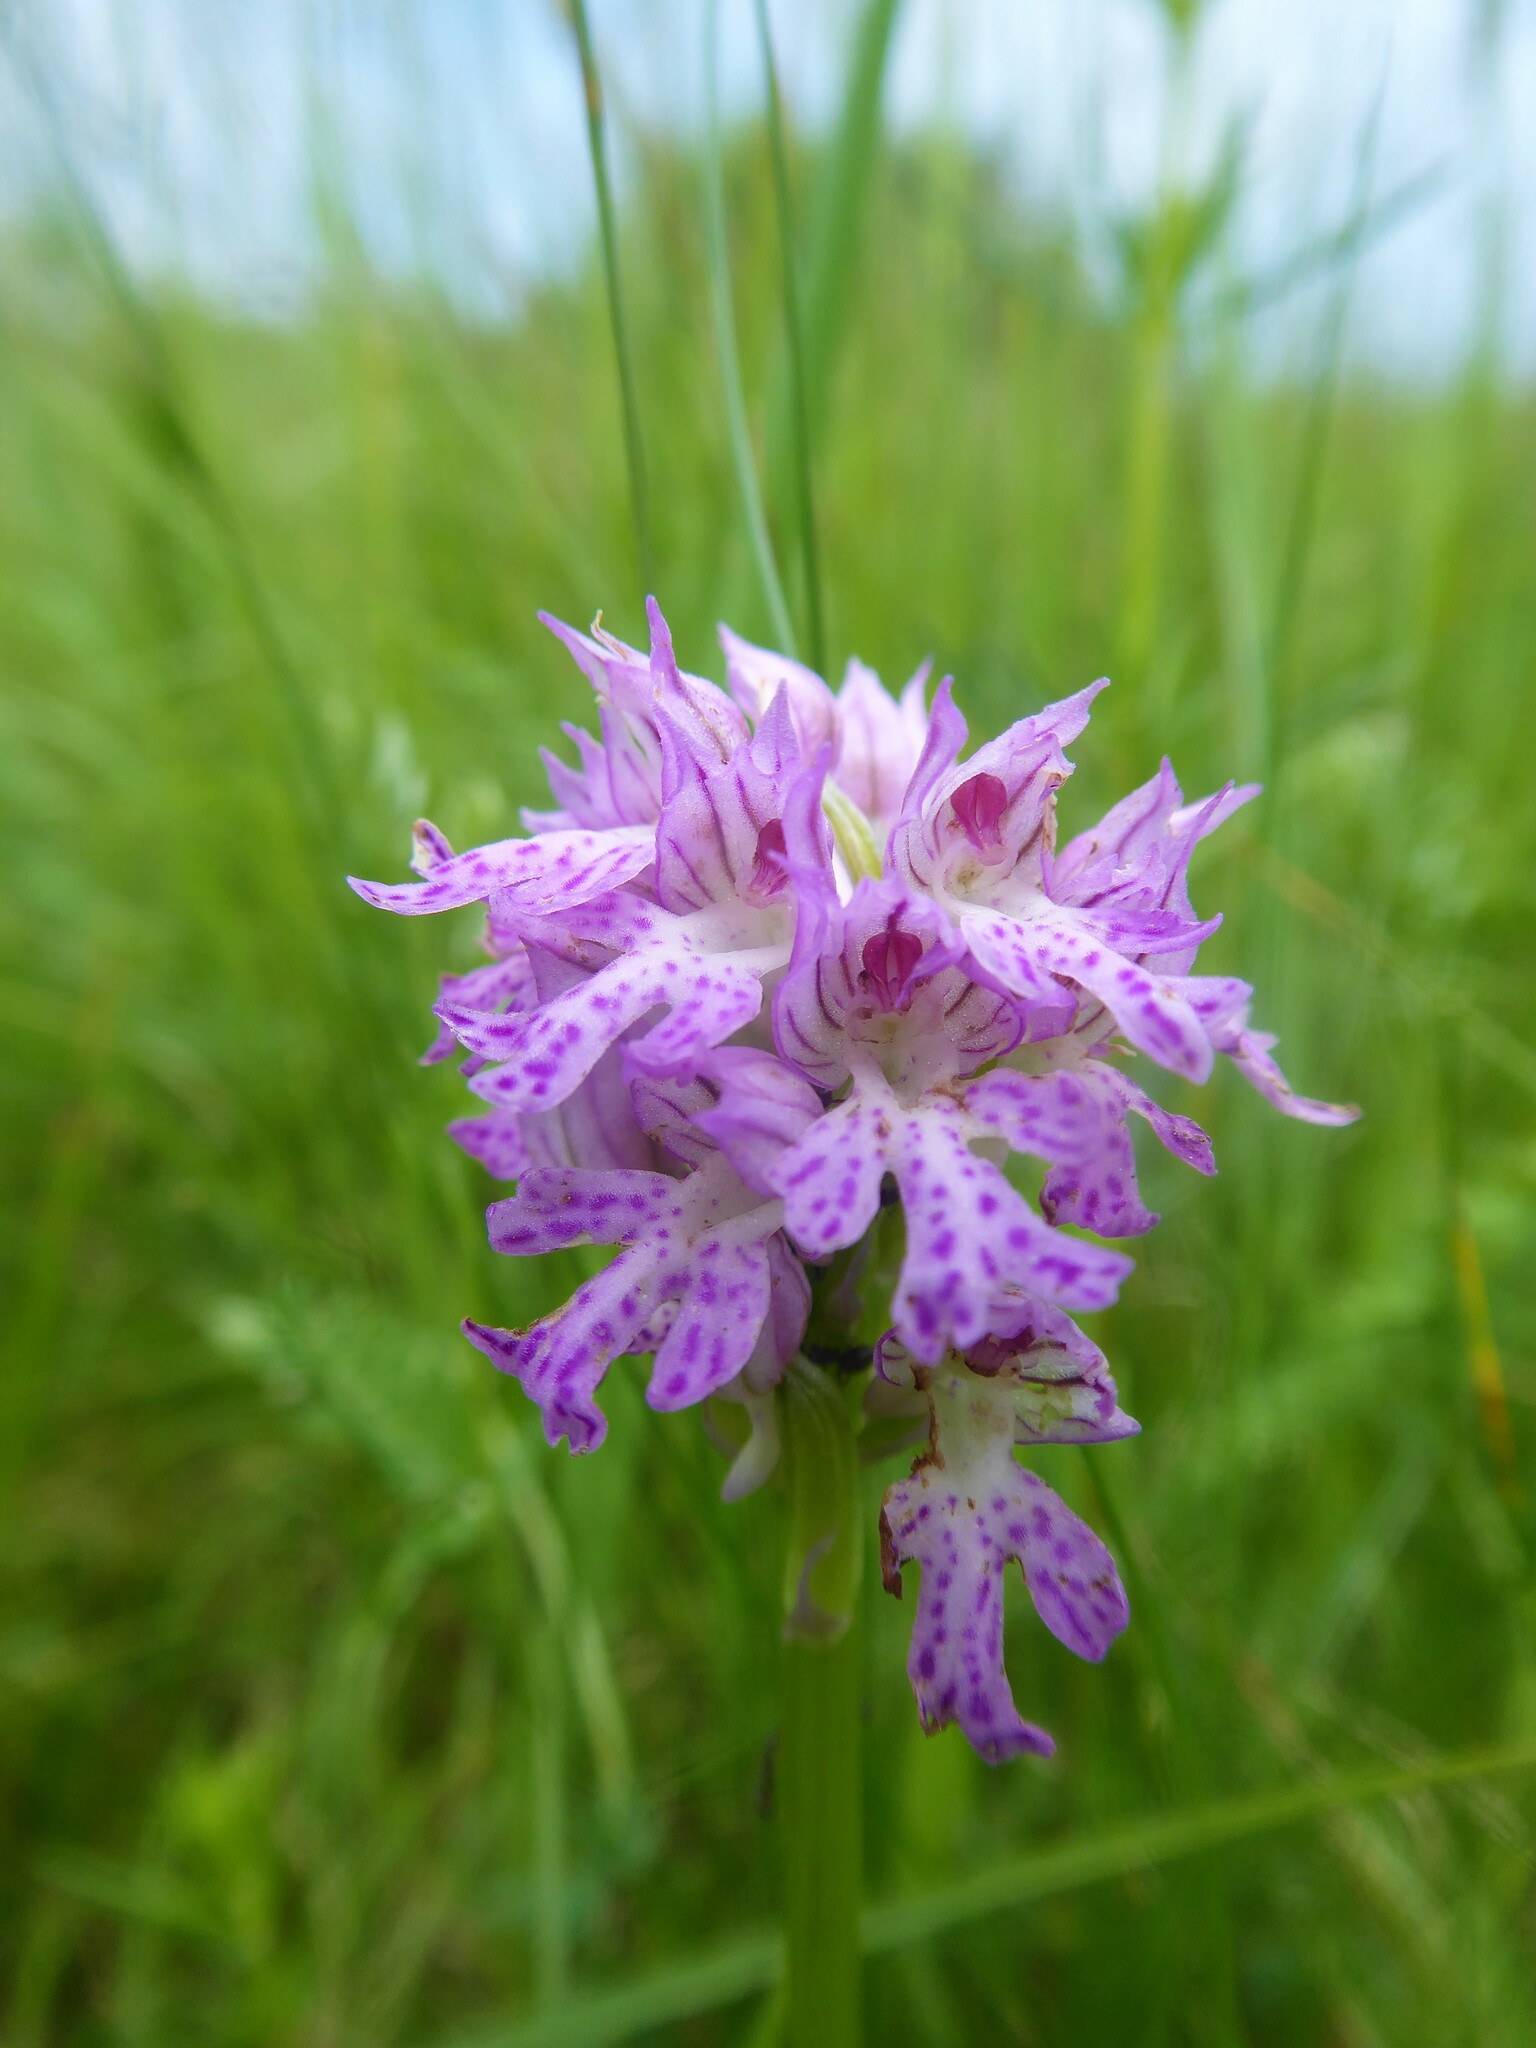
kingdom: Plantae
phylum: Tracheophyta
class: Liliopsida
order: Asparagales
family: Orchidaceae
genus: Neotinea
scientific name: Neotinea tridentata
